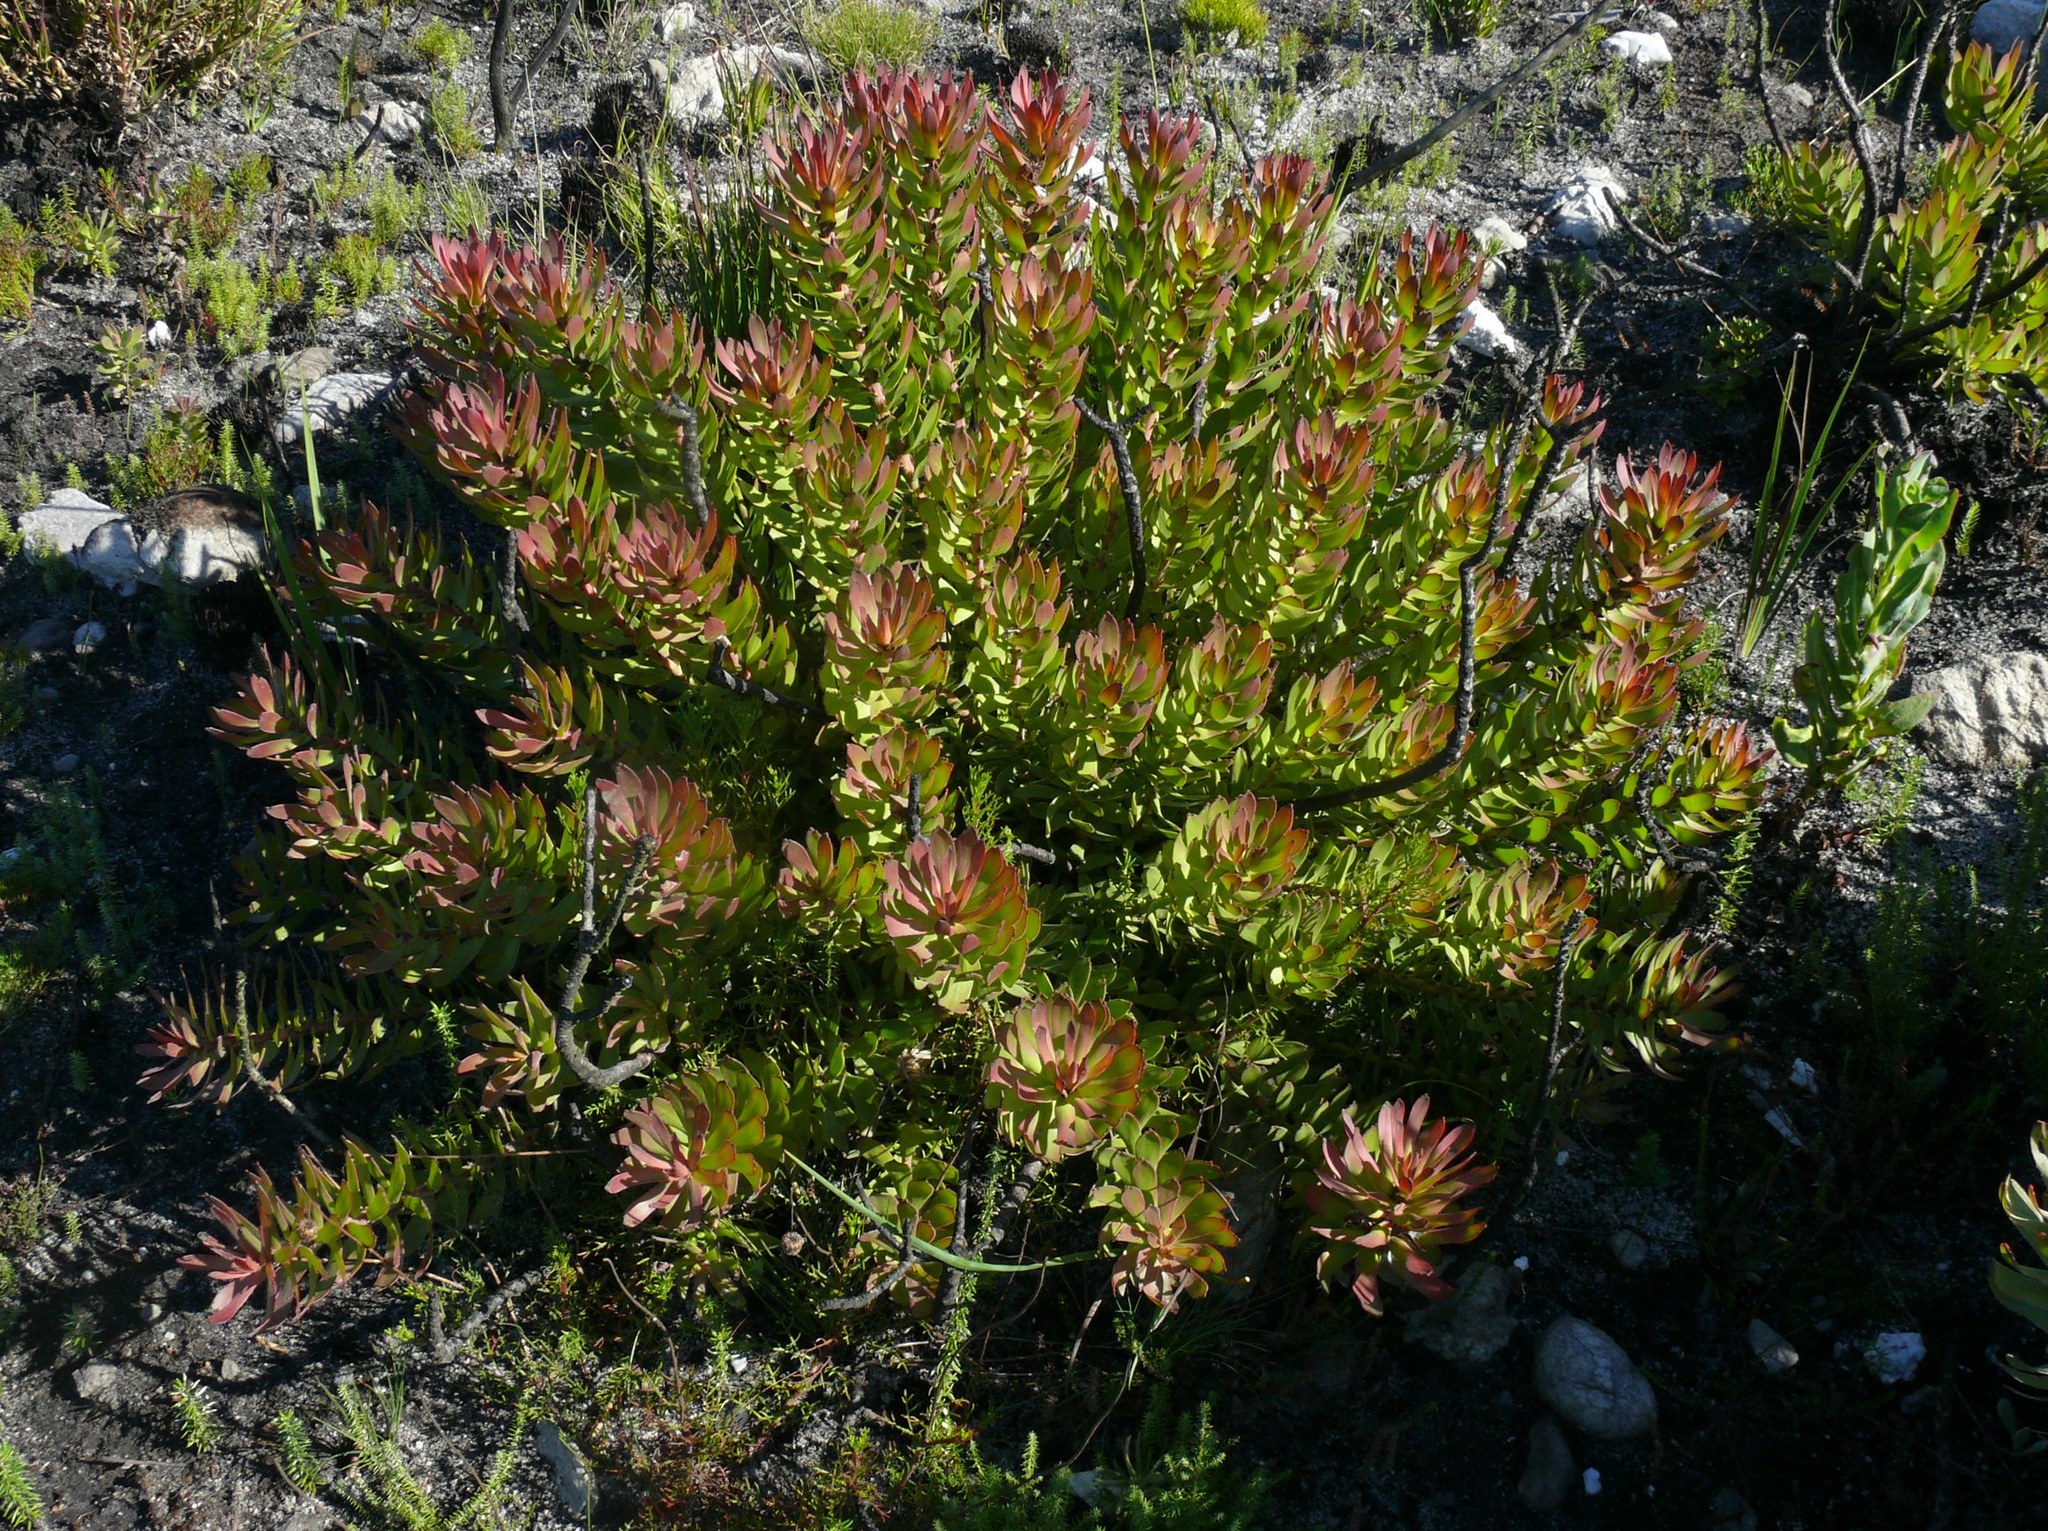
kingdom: Plantae
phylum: Tracheophyta
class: Magnoliopsida
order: Proteales
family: Proteaceae
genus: Mimetes
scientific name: Mimetes cucullatus
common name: Common pagoda
